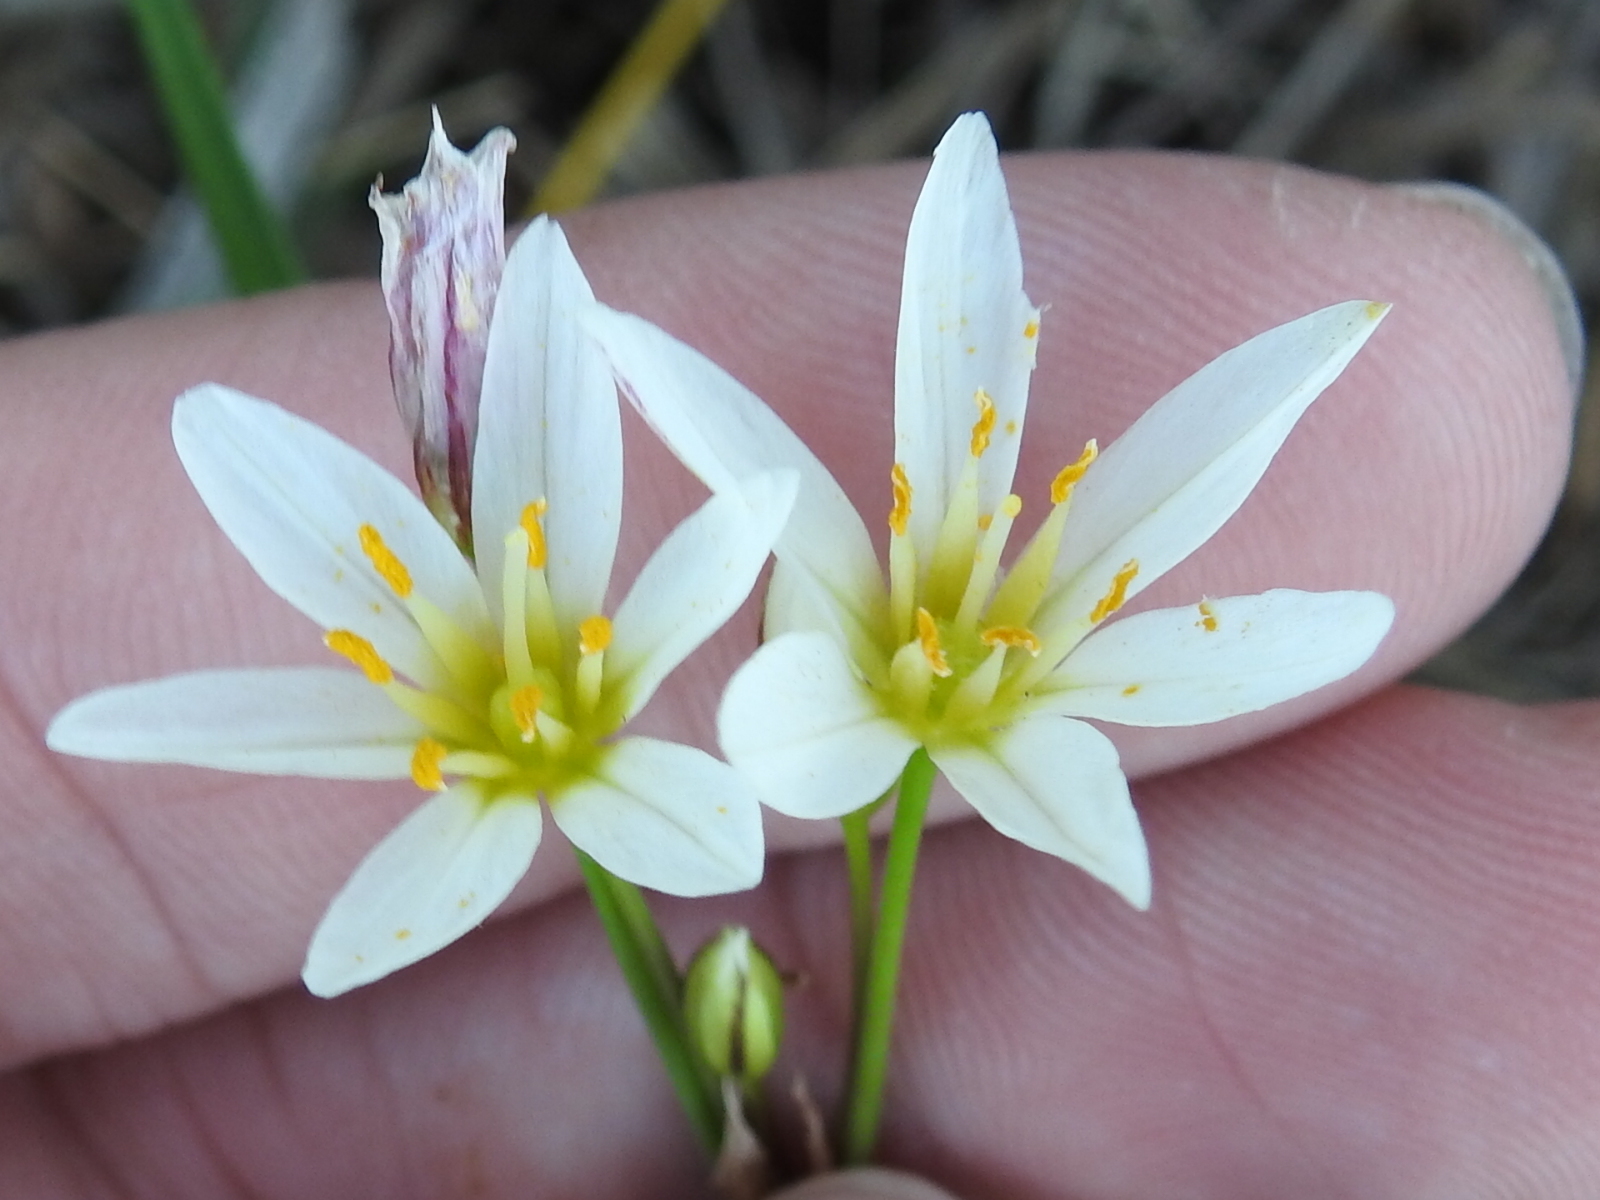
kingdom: Plantae
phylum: Tracheophyta
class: Liliopsida
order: Asparagales
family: Amaryllidaceae
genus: Nothoscordum
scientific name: Nothoscordum bivalve
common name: Crow-poison
